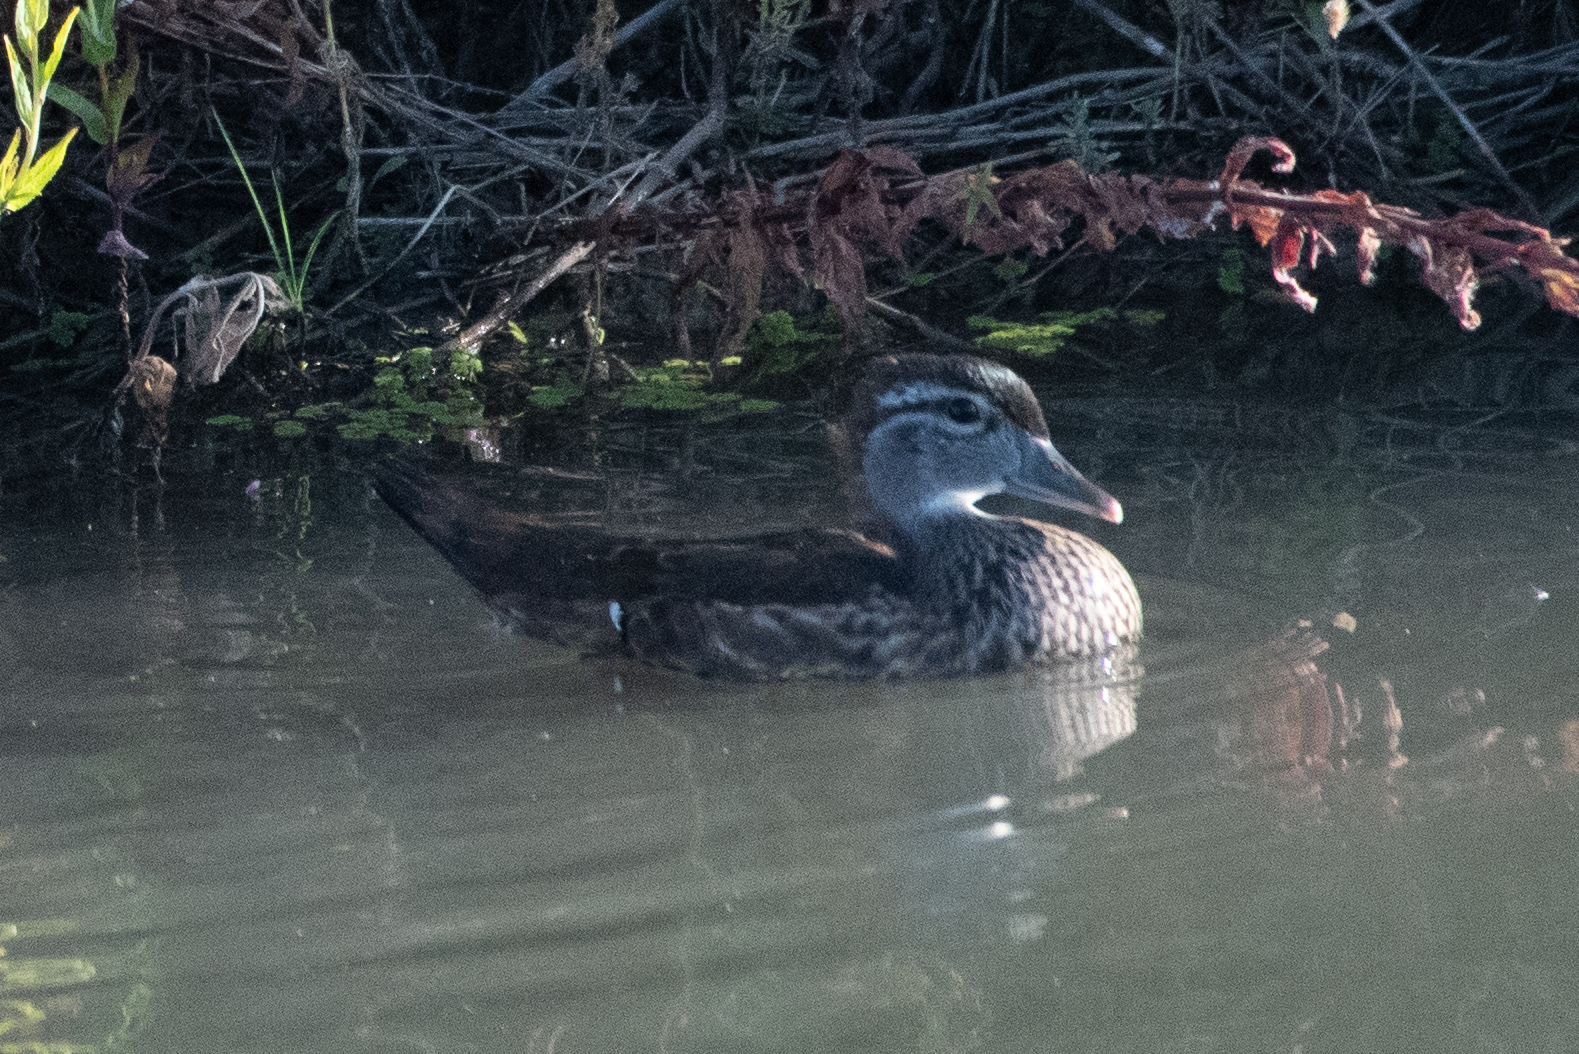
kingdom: Animalia
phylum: Chordata
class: Aves
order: Anseriformes
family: Anatidae
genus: Aix
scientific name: Aix sponsa
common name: Wood duck
